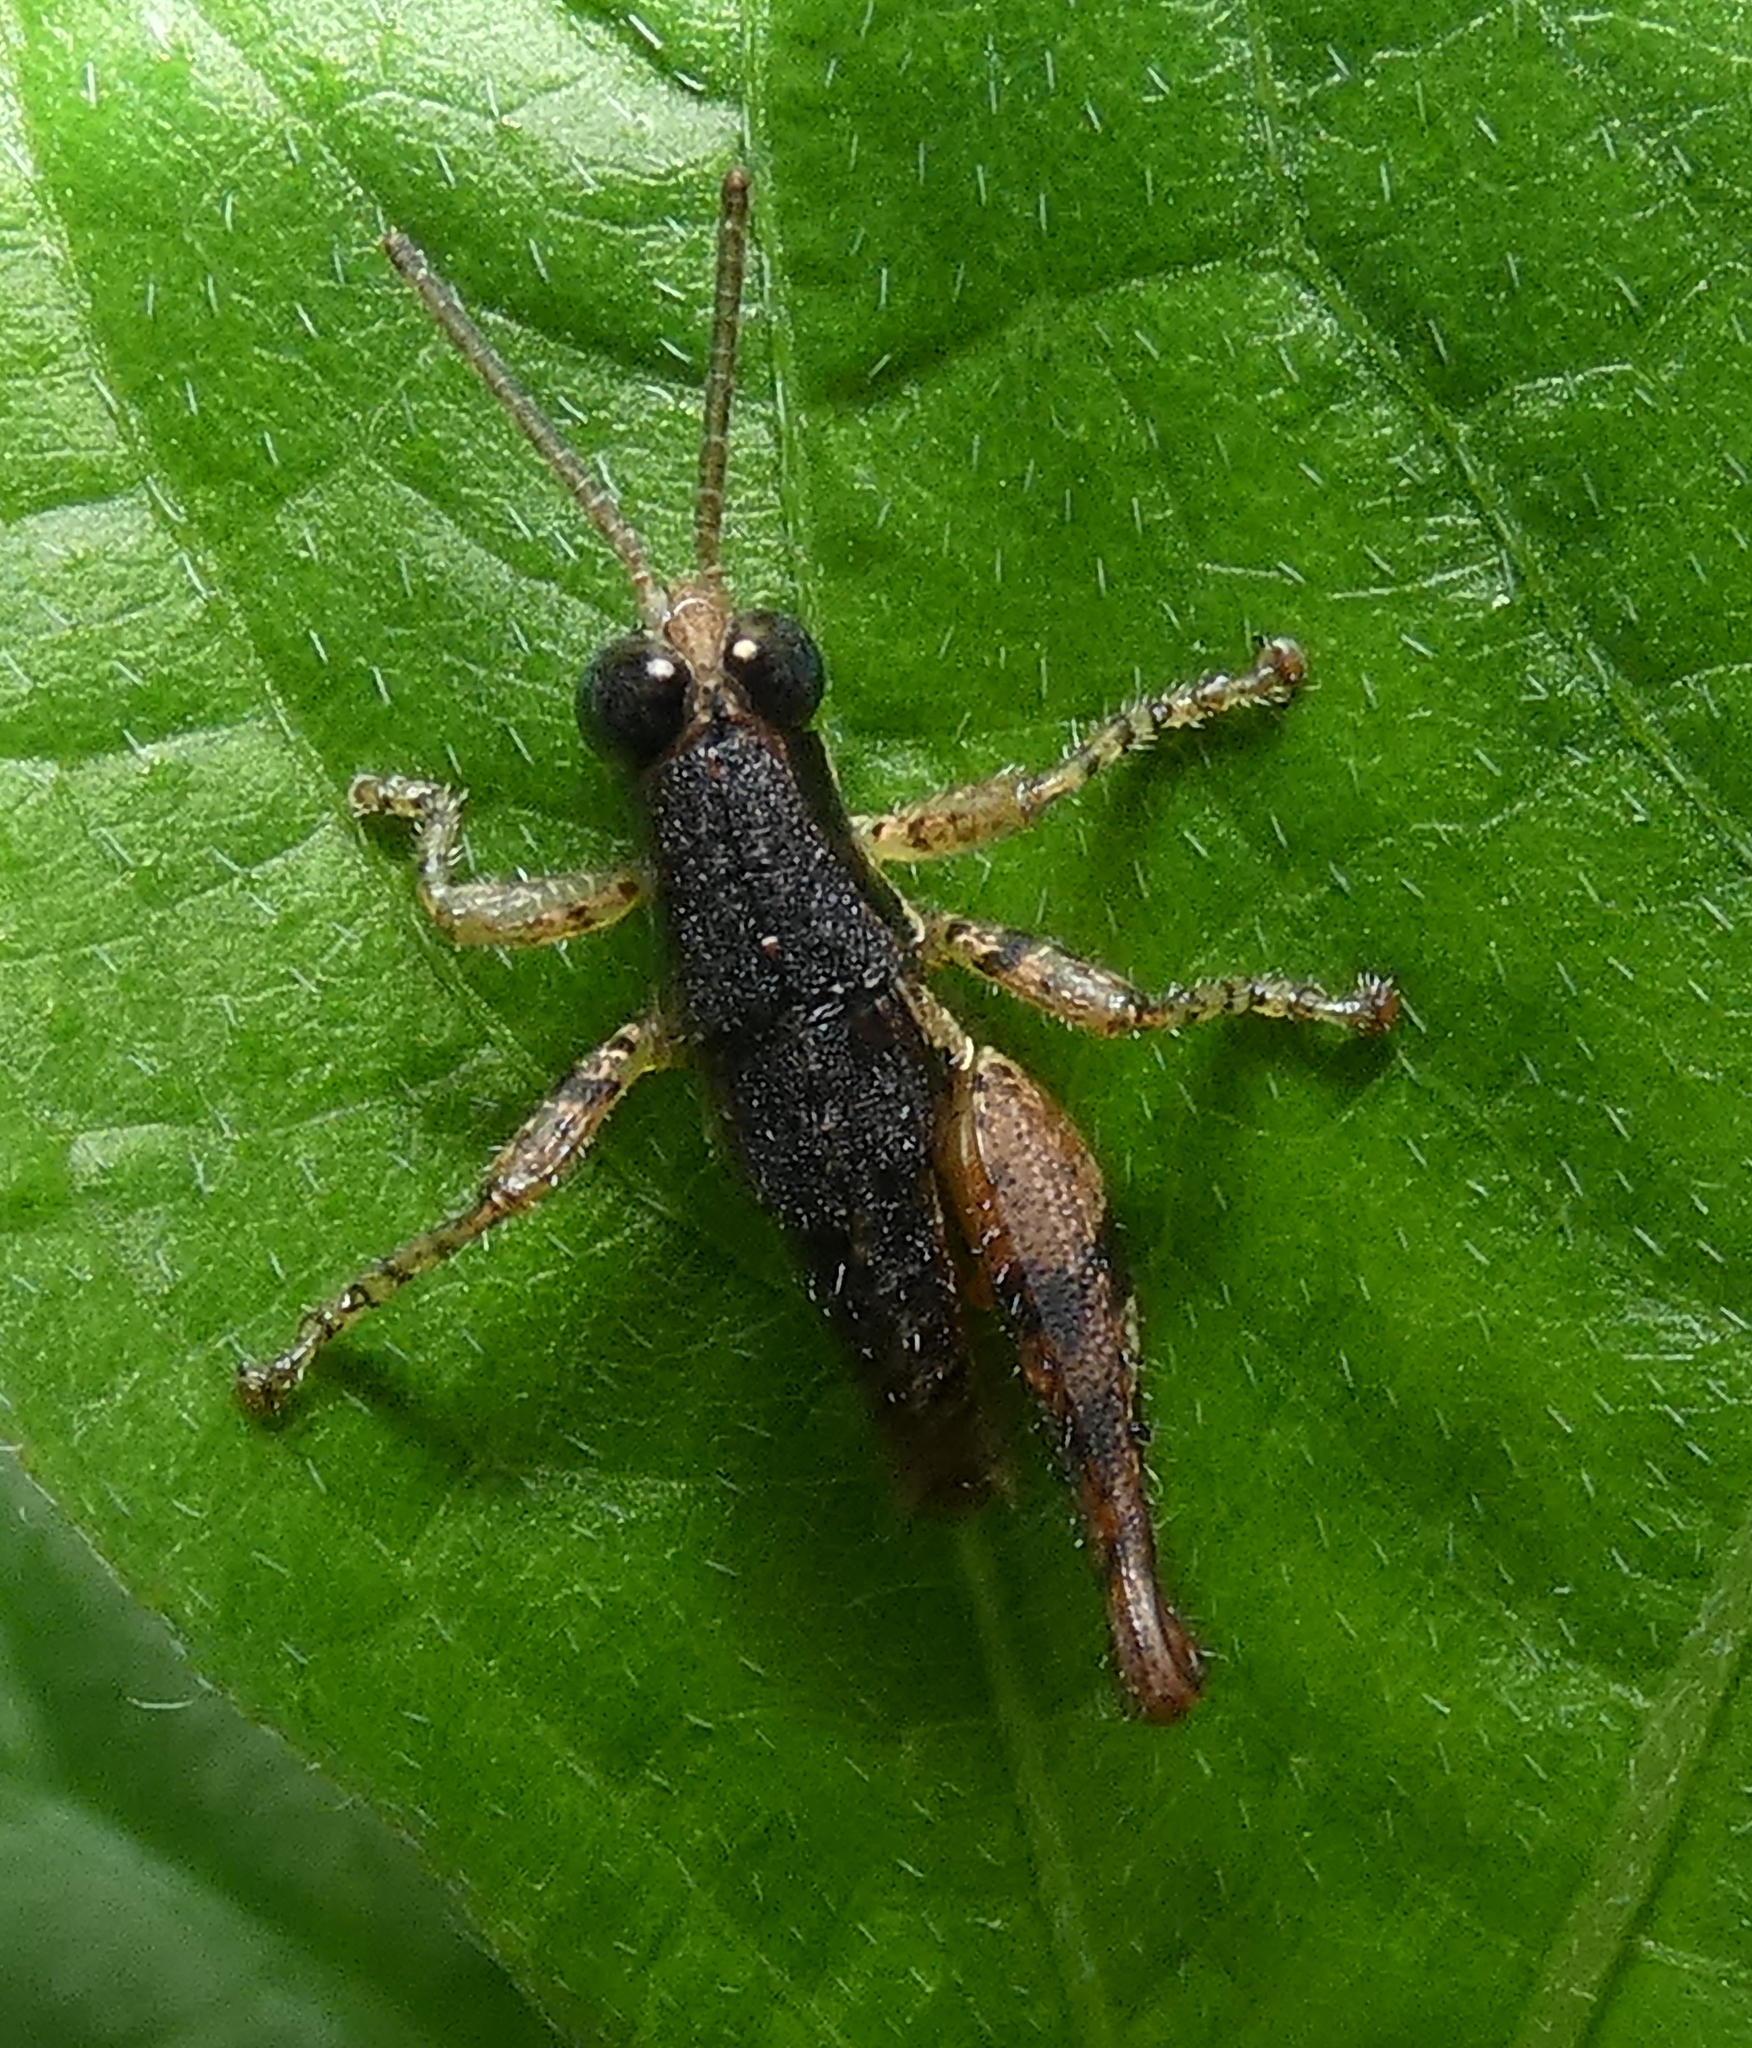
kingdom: Animalia
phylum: Arthropoda
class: Insecta
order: Orthoptera
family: Acrididae
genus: Eujivarus
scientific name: Eujivarus meridionalis
